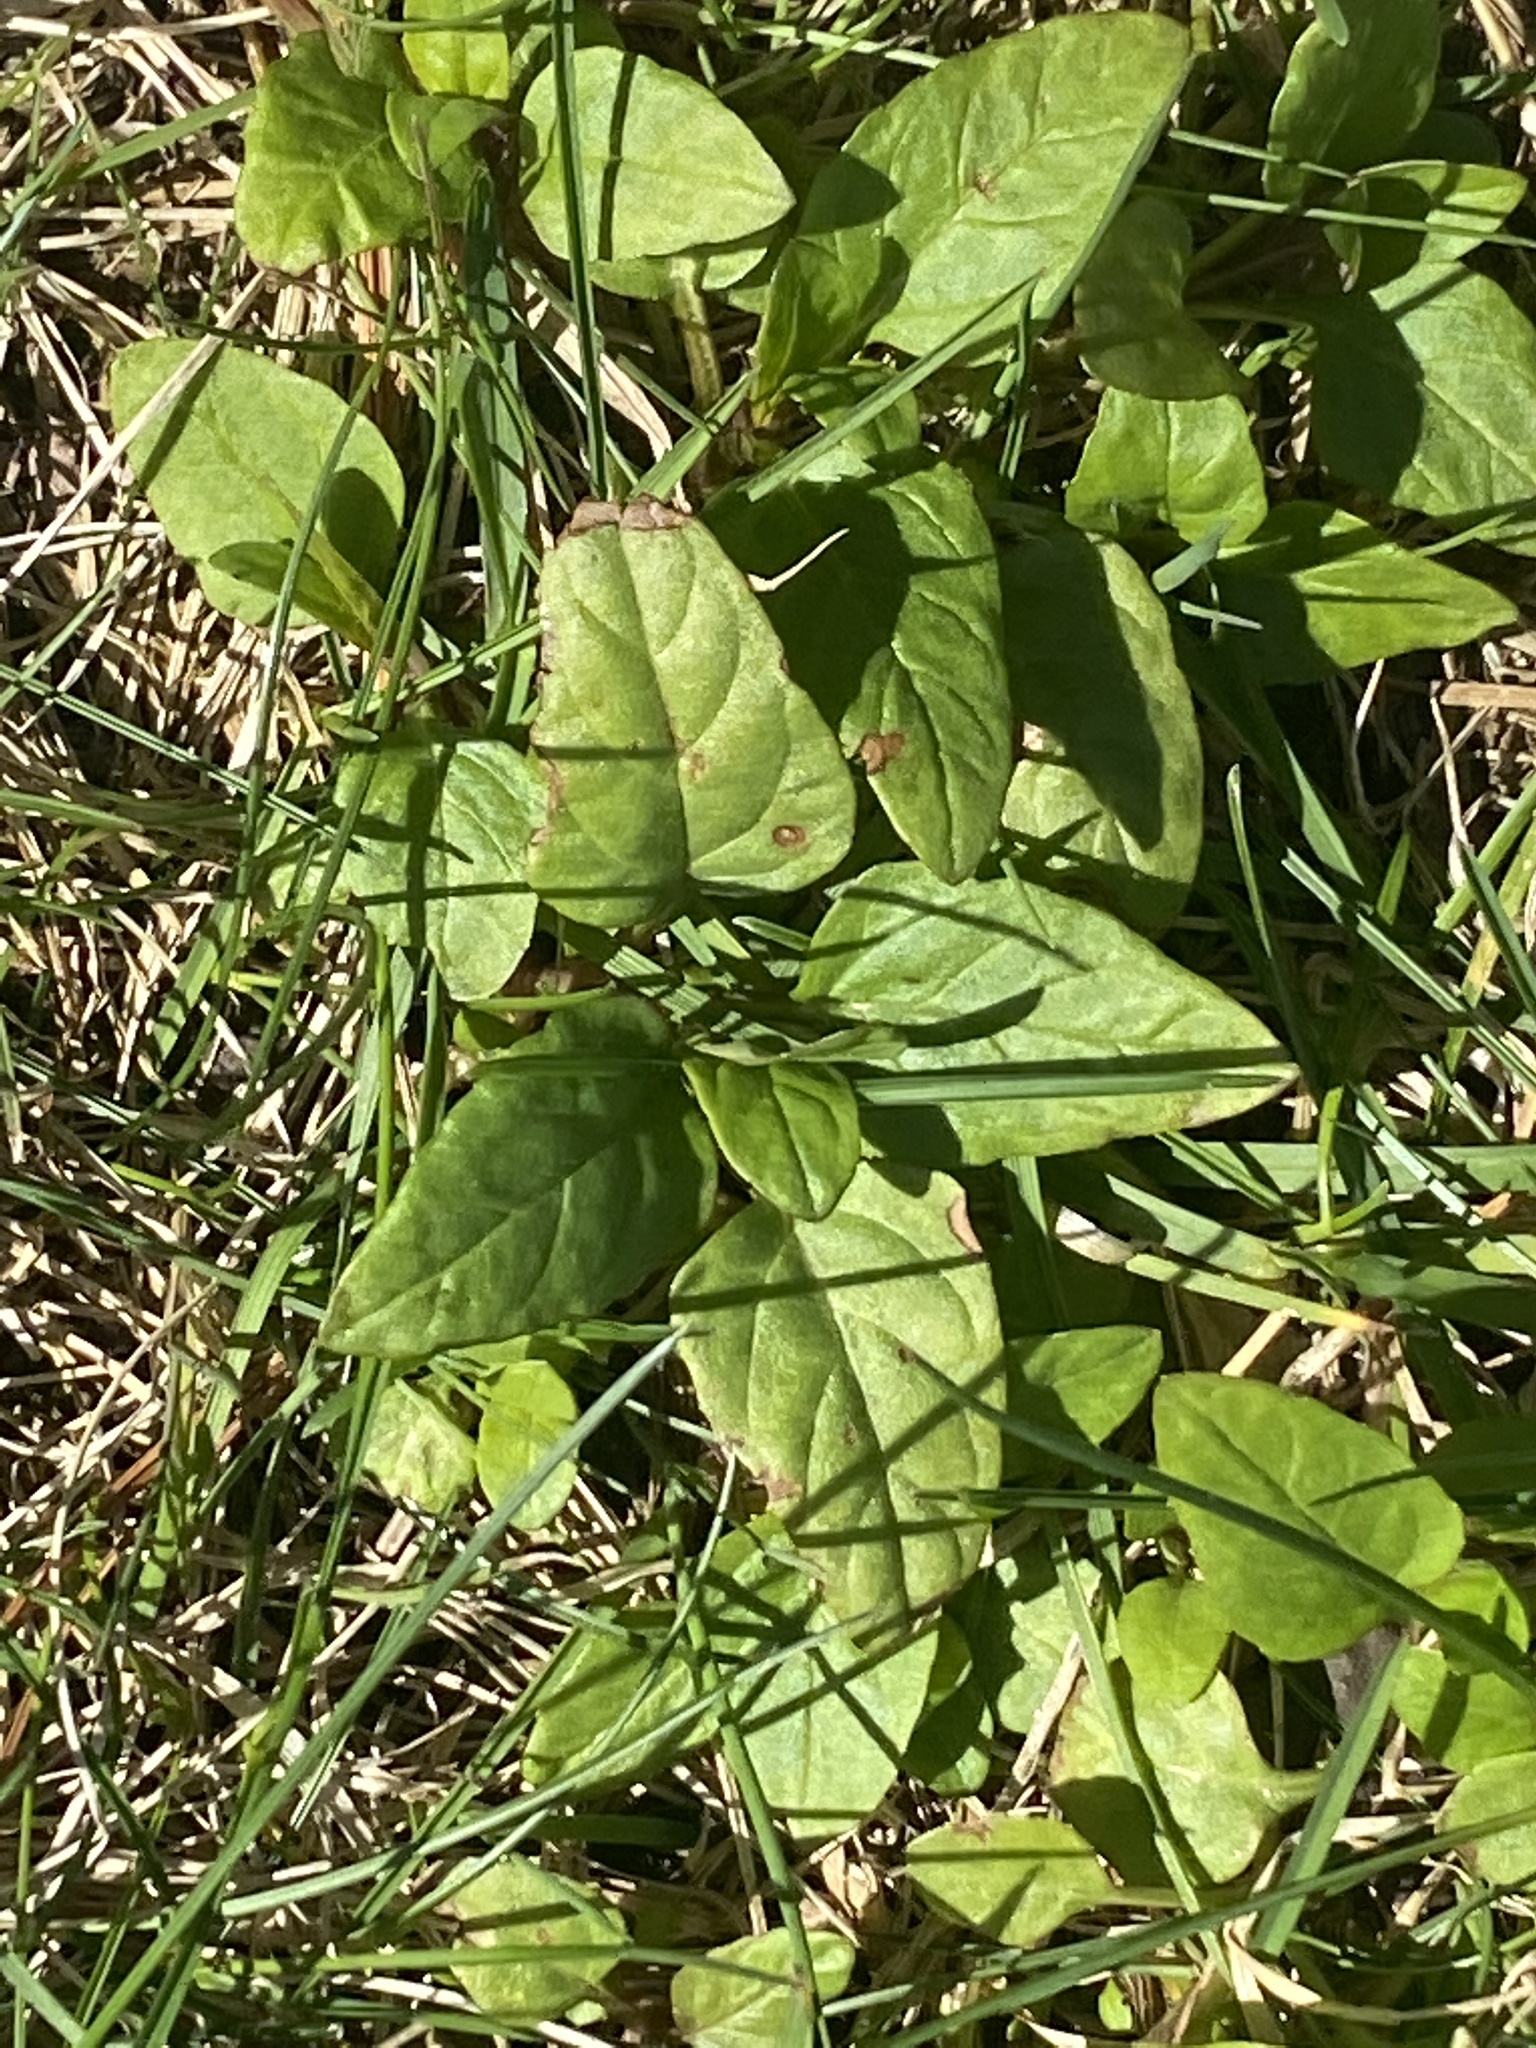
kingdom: Plantae
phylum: Tracheophyta
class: Magnoliopsida
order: Lamiales
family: Lamiaceae
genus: Prunella
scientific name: Prunella vulgaris
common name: Heal-all
